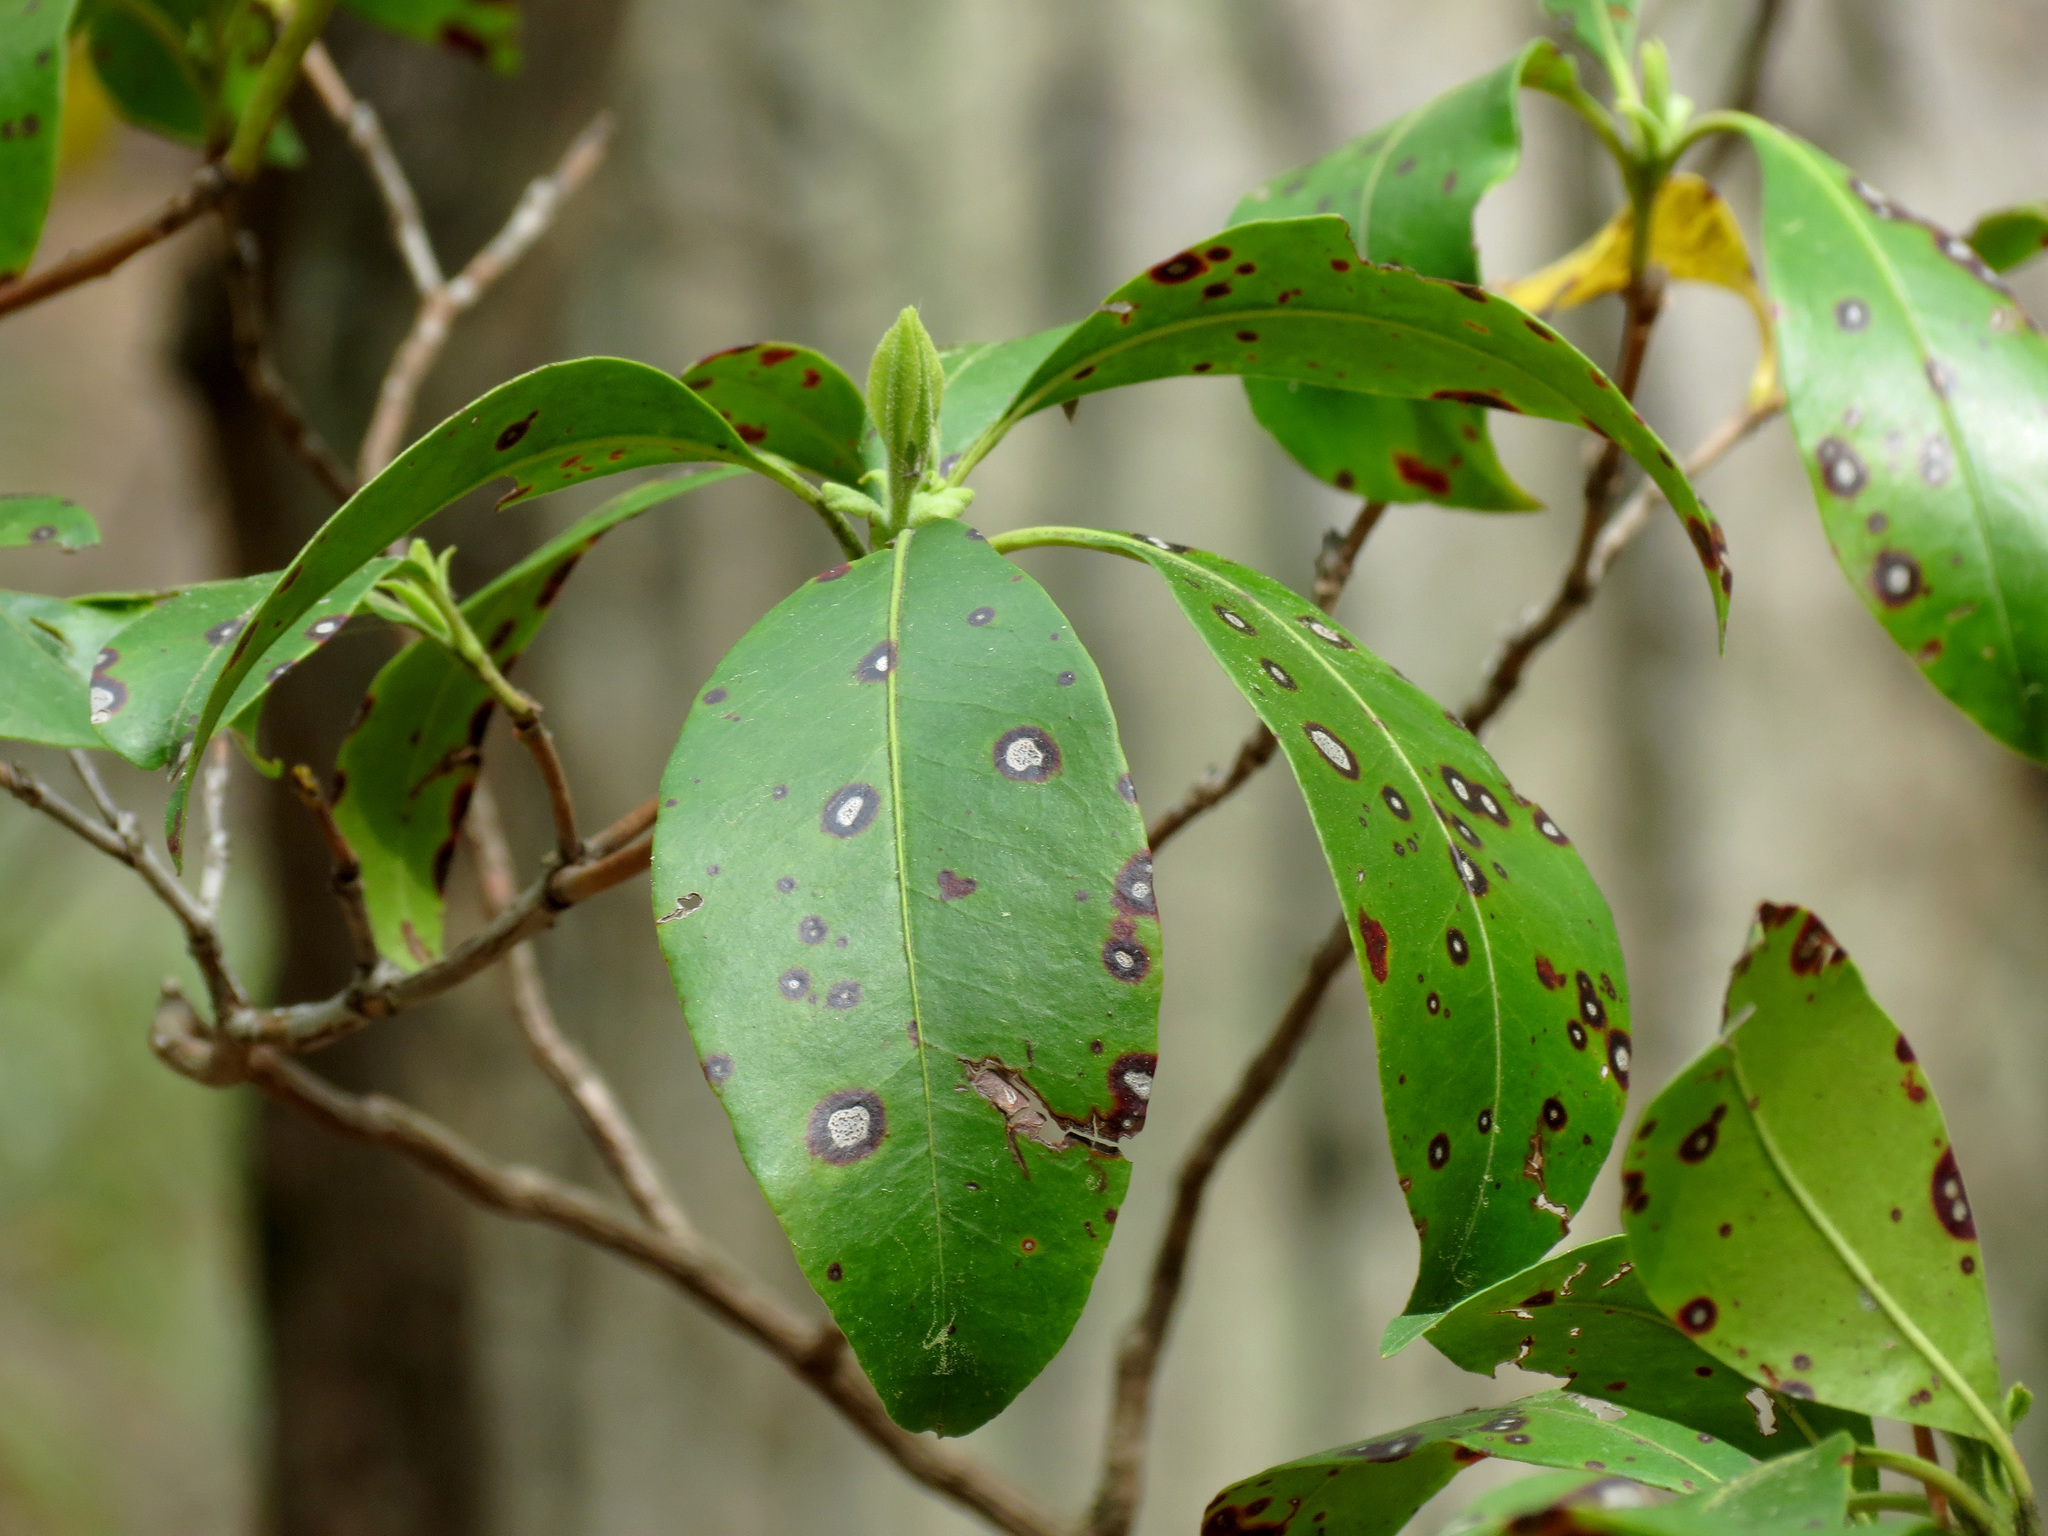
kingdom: Fungi
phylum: Ascomycota
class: Dothideomycetes
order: Mycosphaerellales
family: Mycosphaerellaceae
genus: Mycosphaerella
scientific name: Mycosphaerella colorata
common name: Mountain laurel leaf spot
